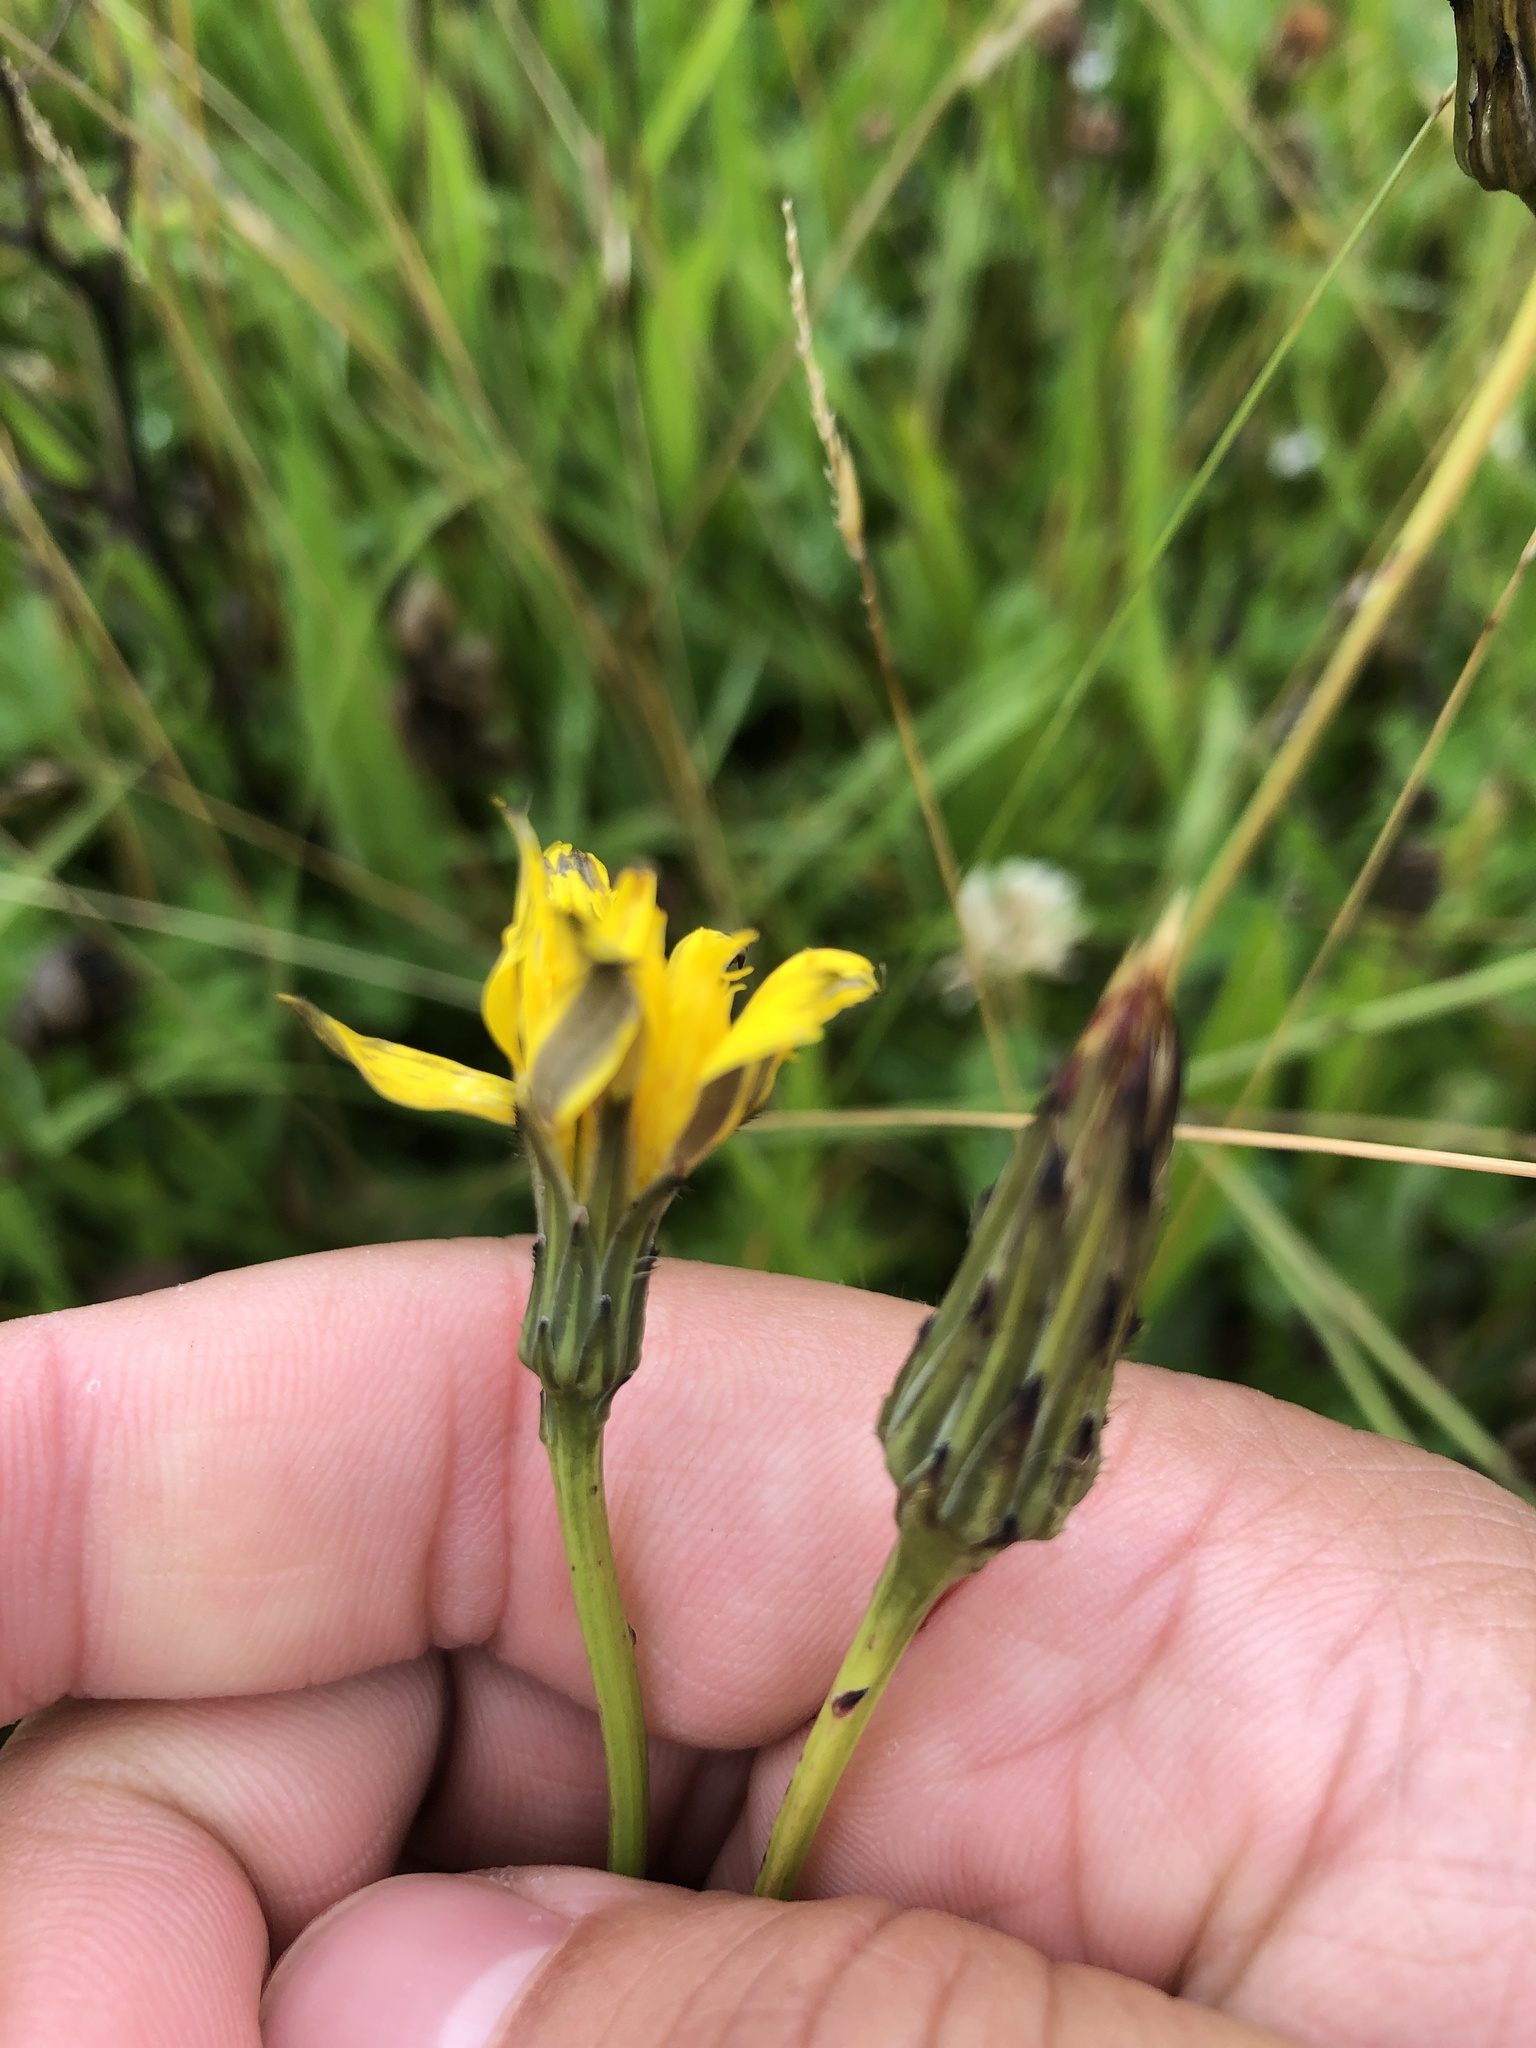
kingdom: Plantae
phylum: Tracheophyta
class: Magnoliopsida
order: Asterales
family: Asteraceae
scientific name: Asteraceae
